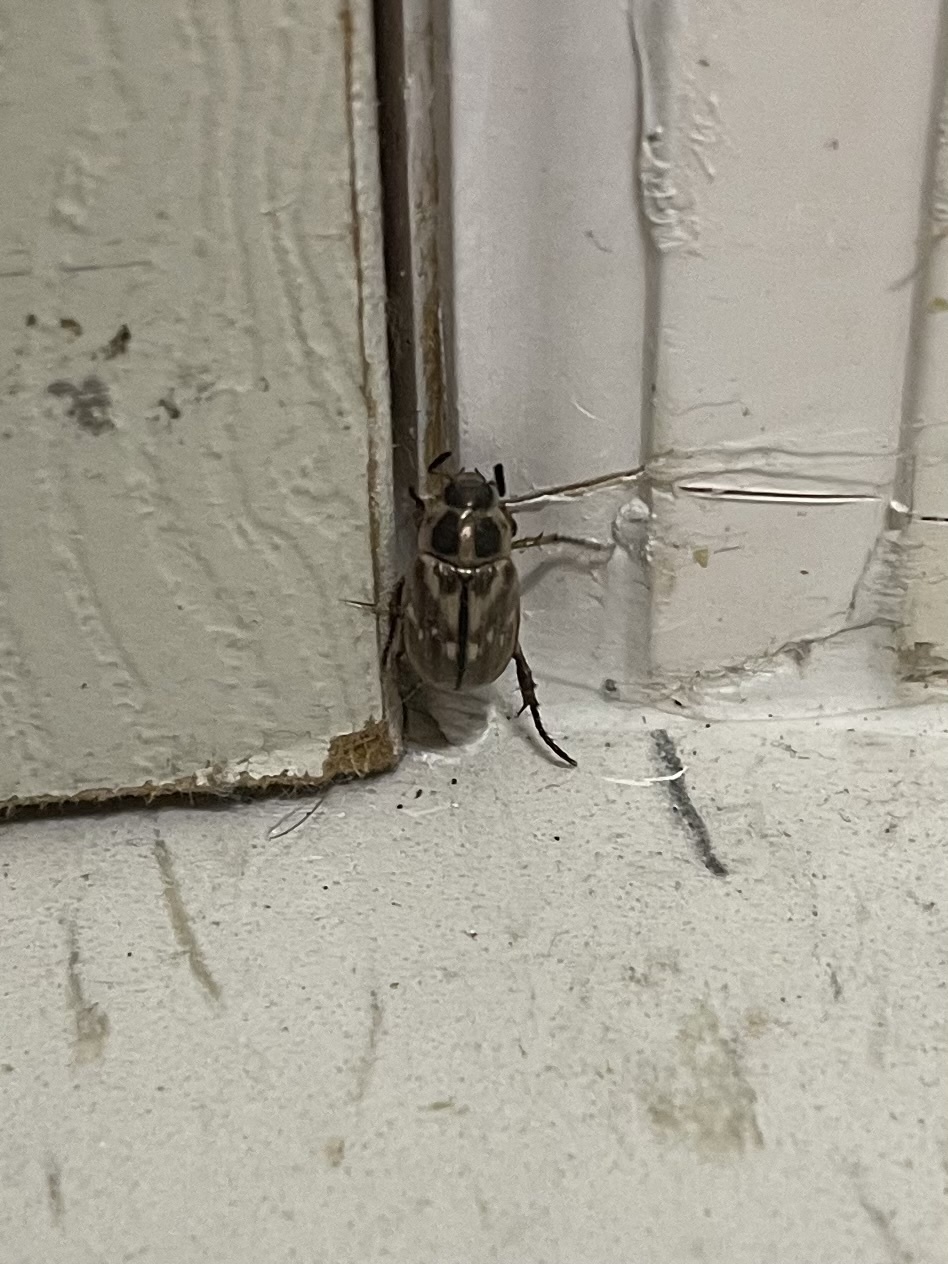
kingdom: Animalia
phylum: Arthropoda
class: Insecta
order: Coleoptera
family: Scarabaeidae
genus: Exomala
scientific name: Exomala orientalis
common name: Oriental beetle
